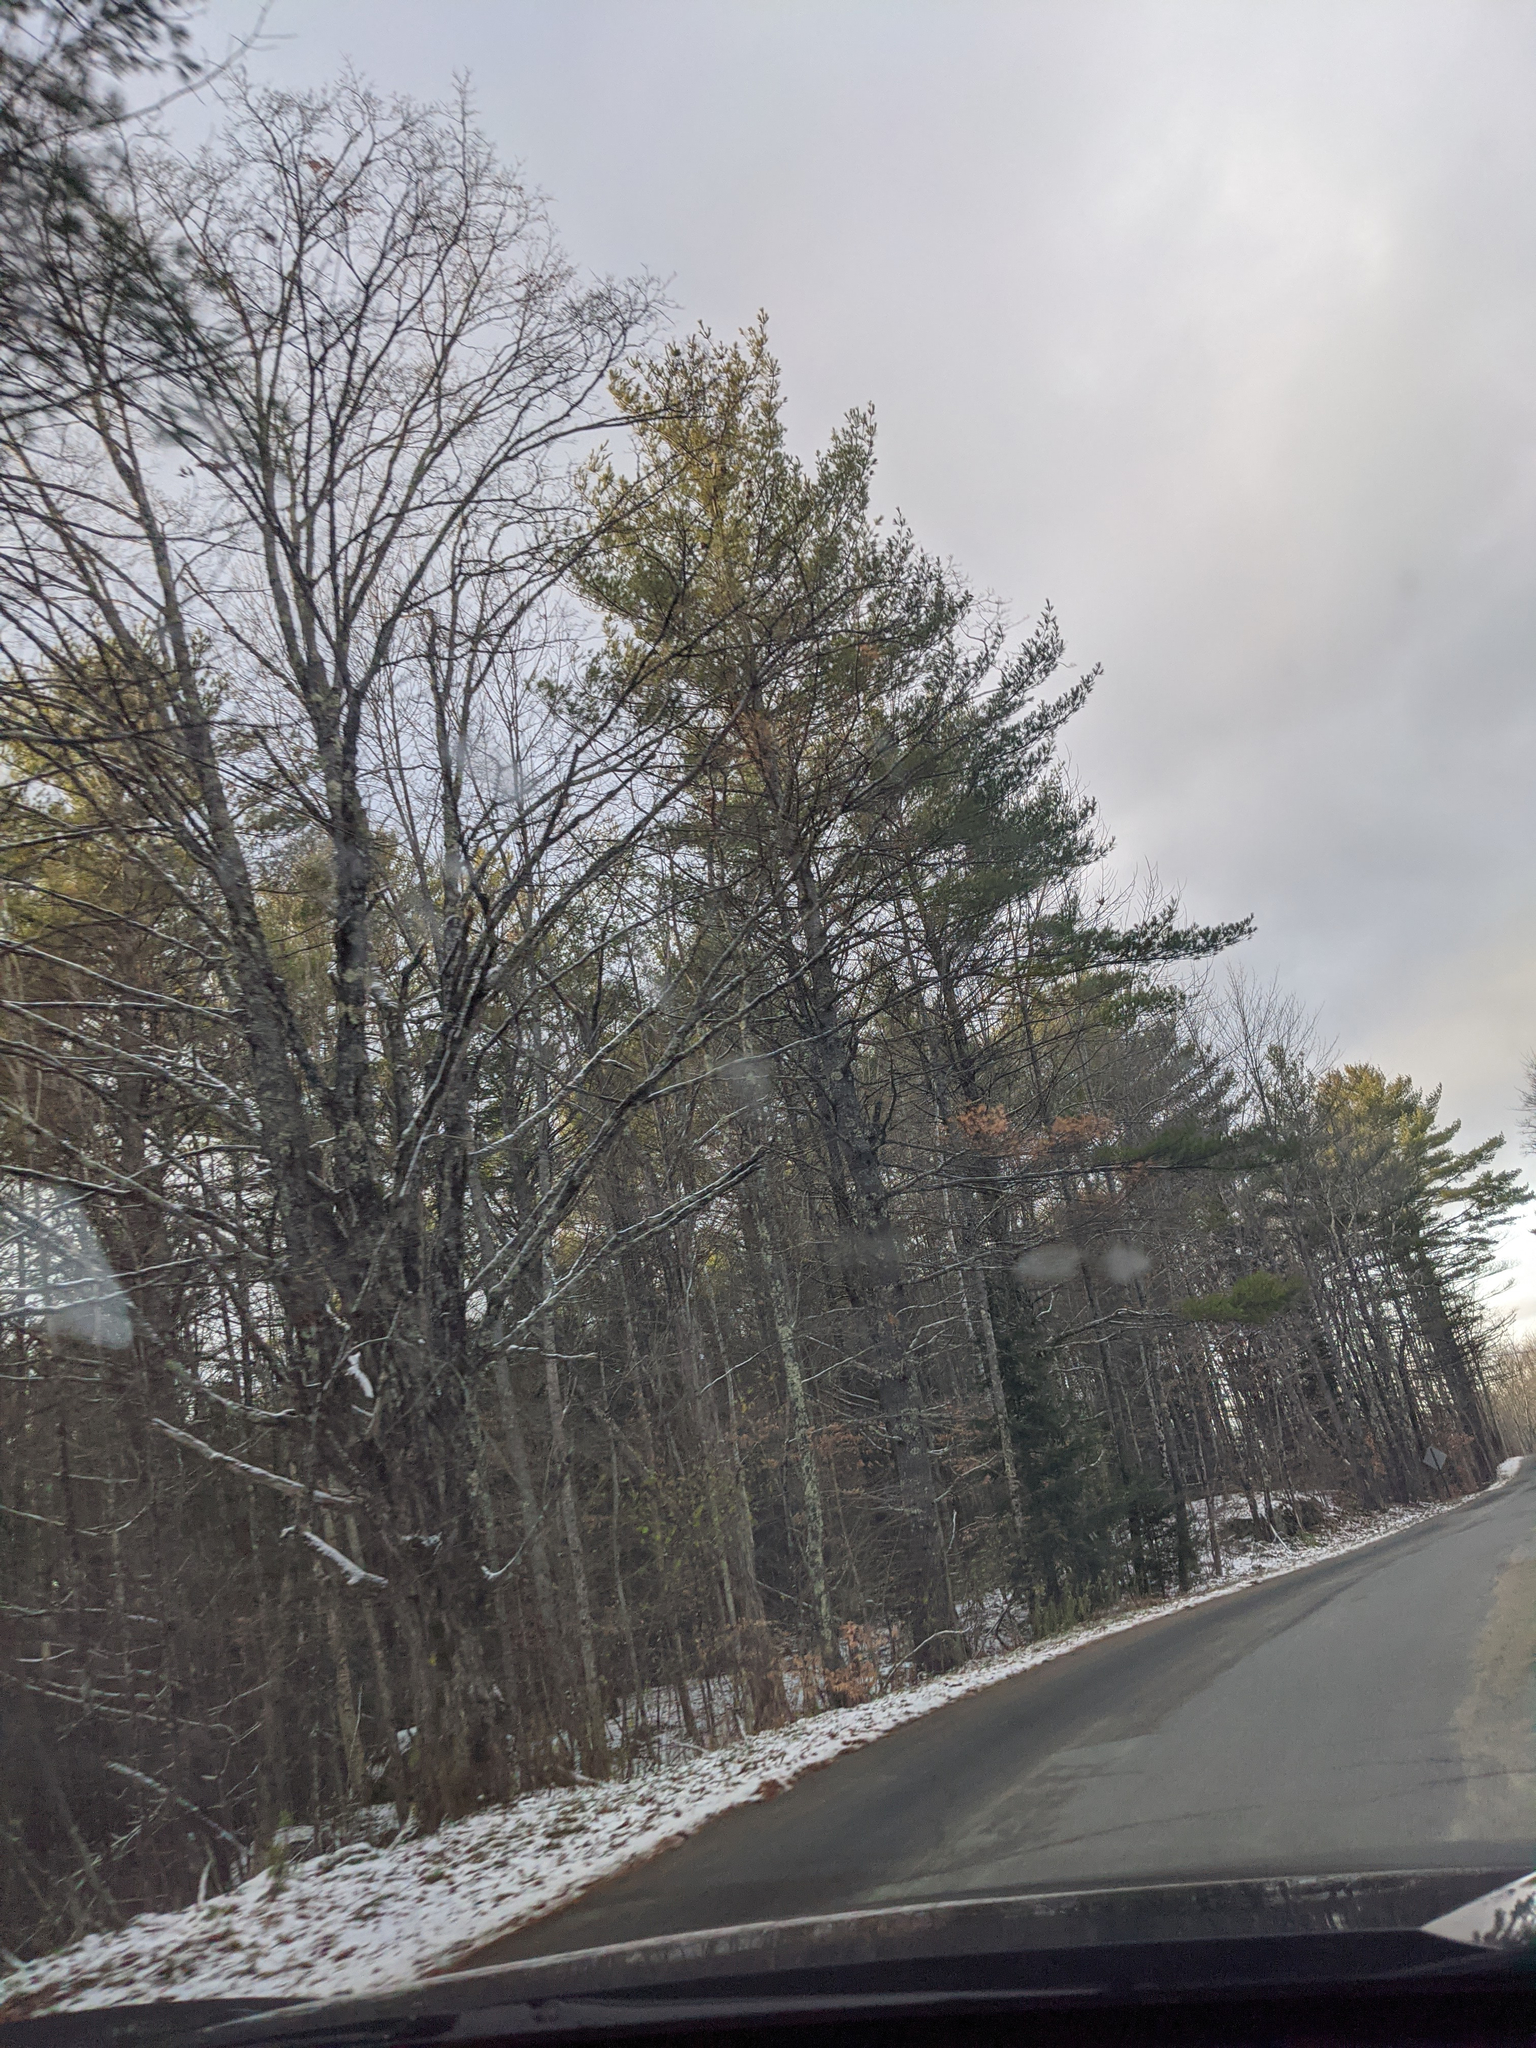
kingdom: Plantae
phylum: Tracheophyta
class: Pinopsida
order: Pinales
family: Pinaceae
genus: Pinus
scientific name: Pinus strobus
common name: Weymouth pine
